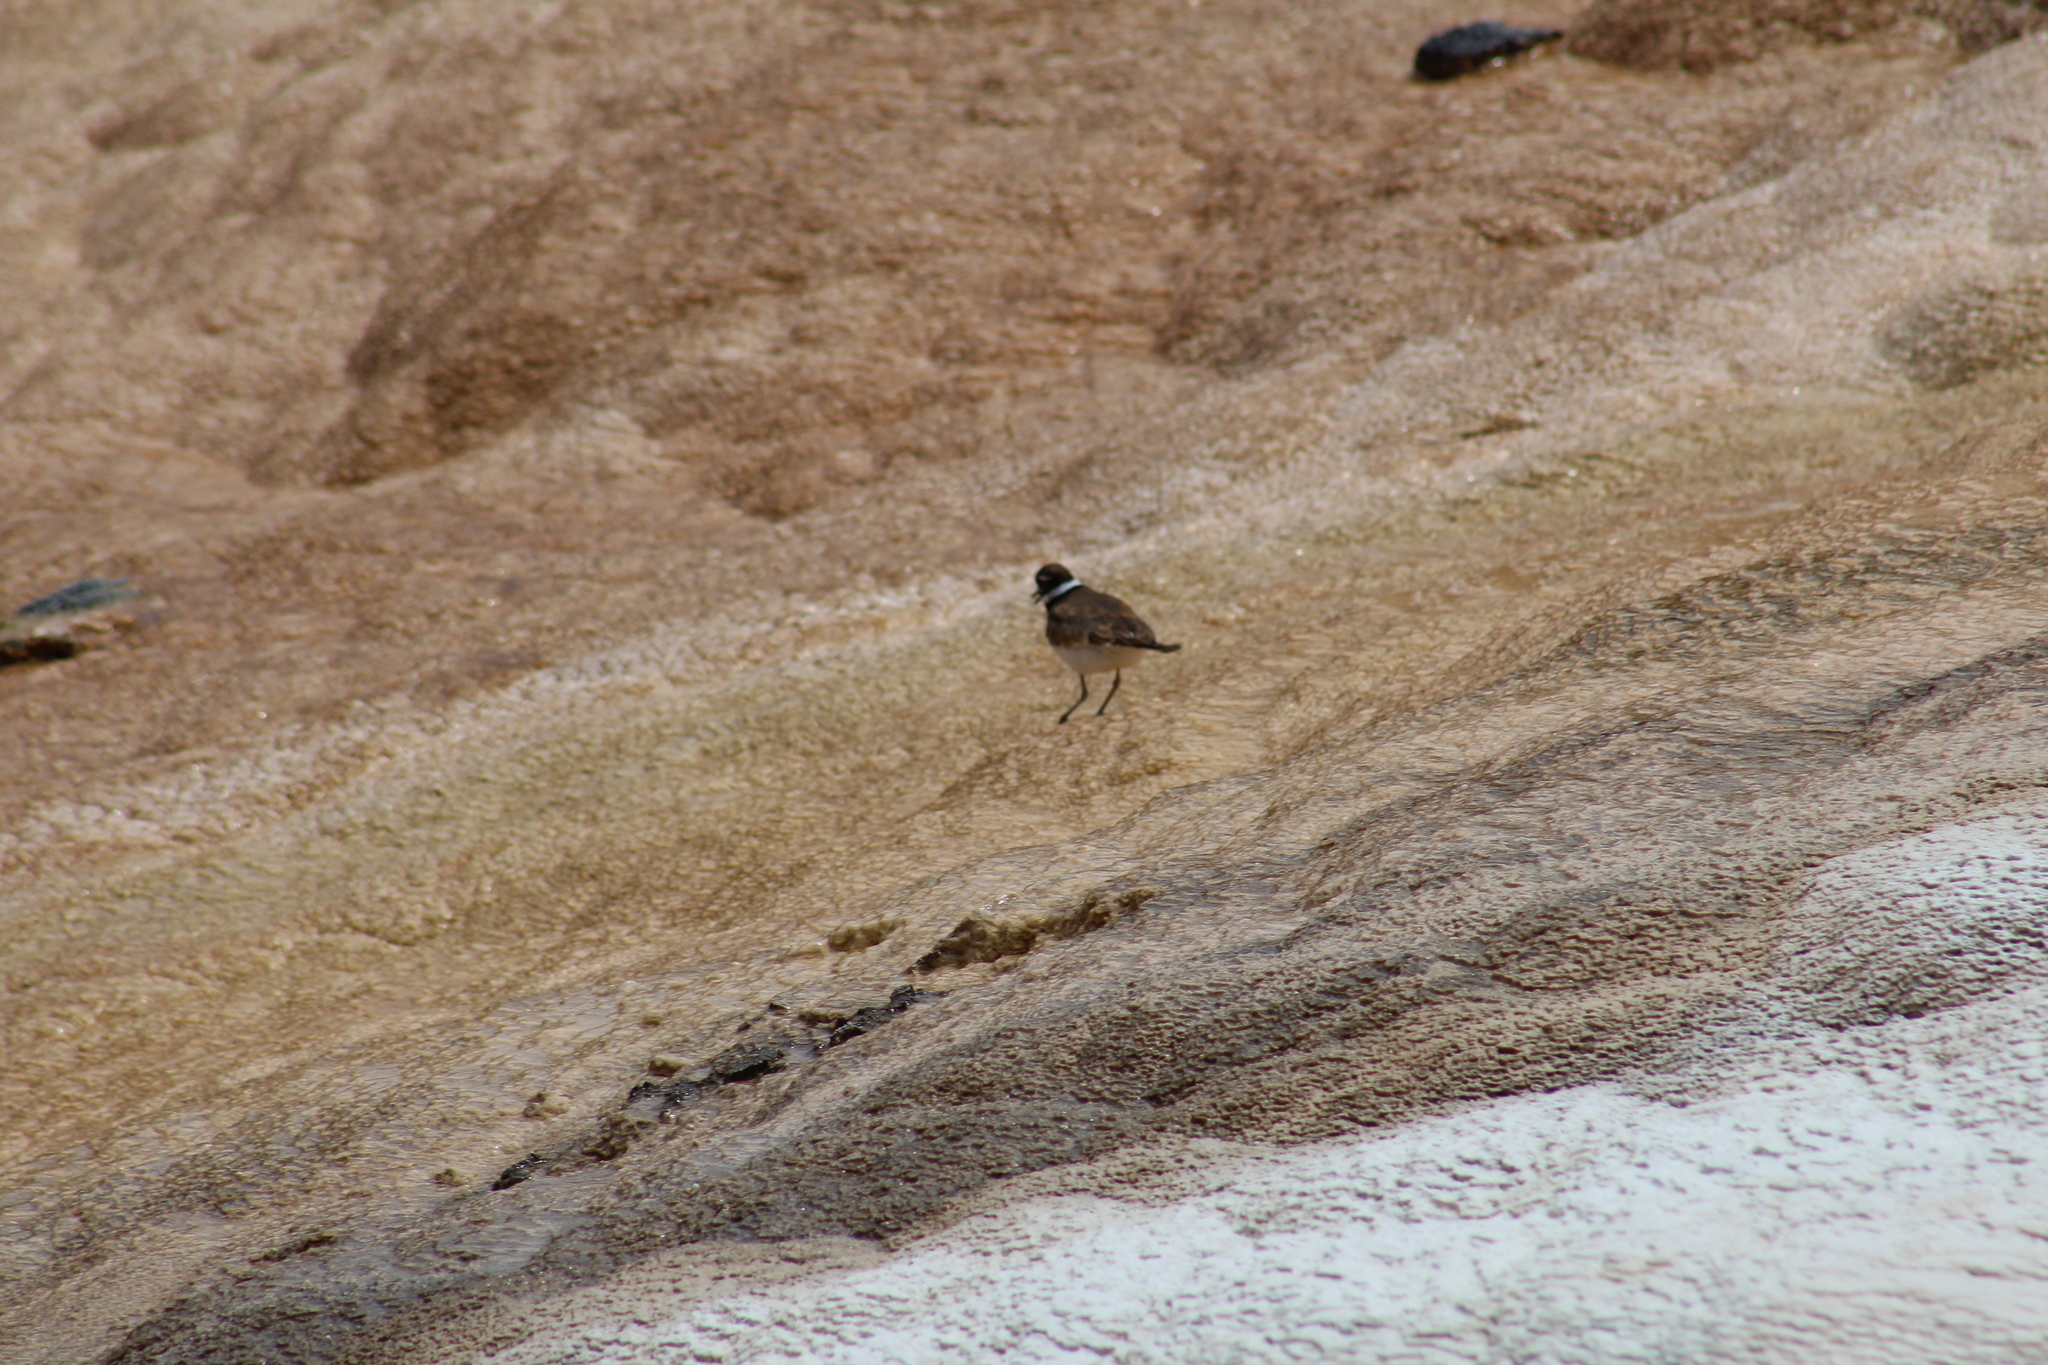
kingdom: Animalia
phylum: Chordata
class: Aves
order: Charadriiformes
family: Charadriidae
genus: Charadrius
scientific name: Charadrius vociferus
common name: Killdeer
